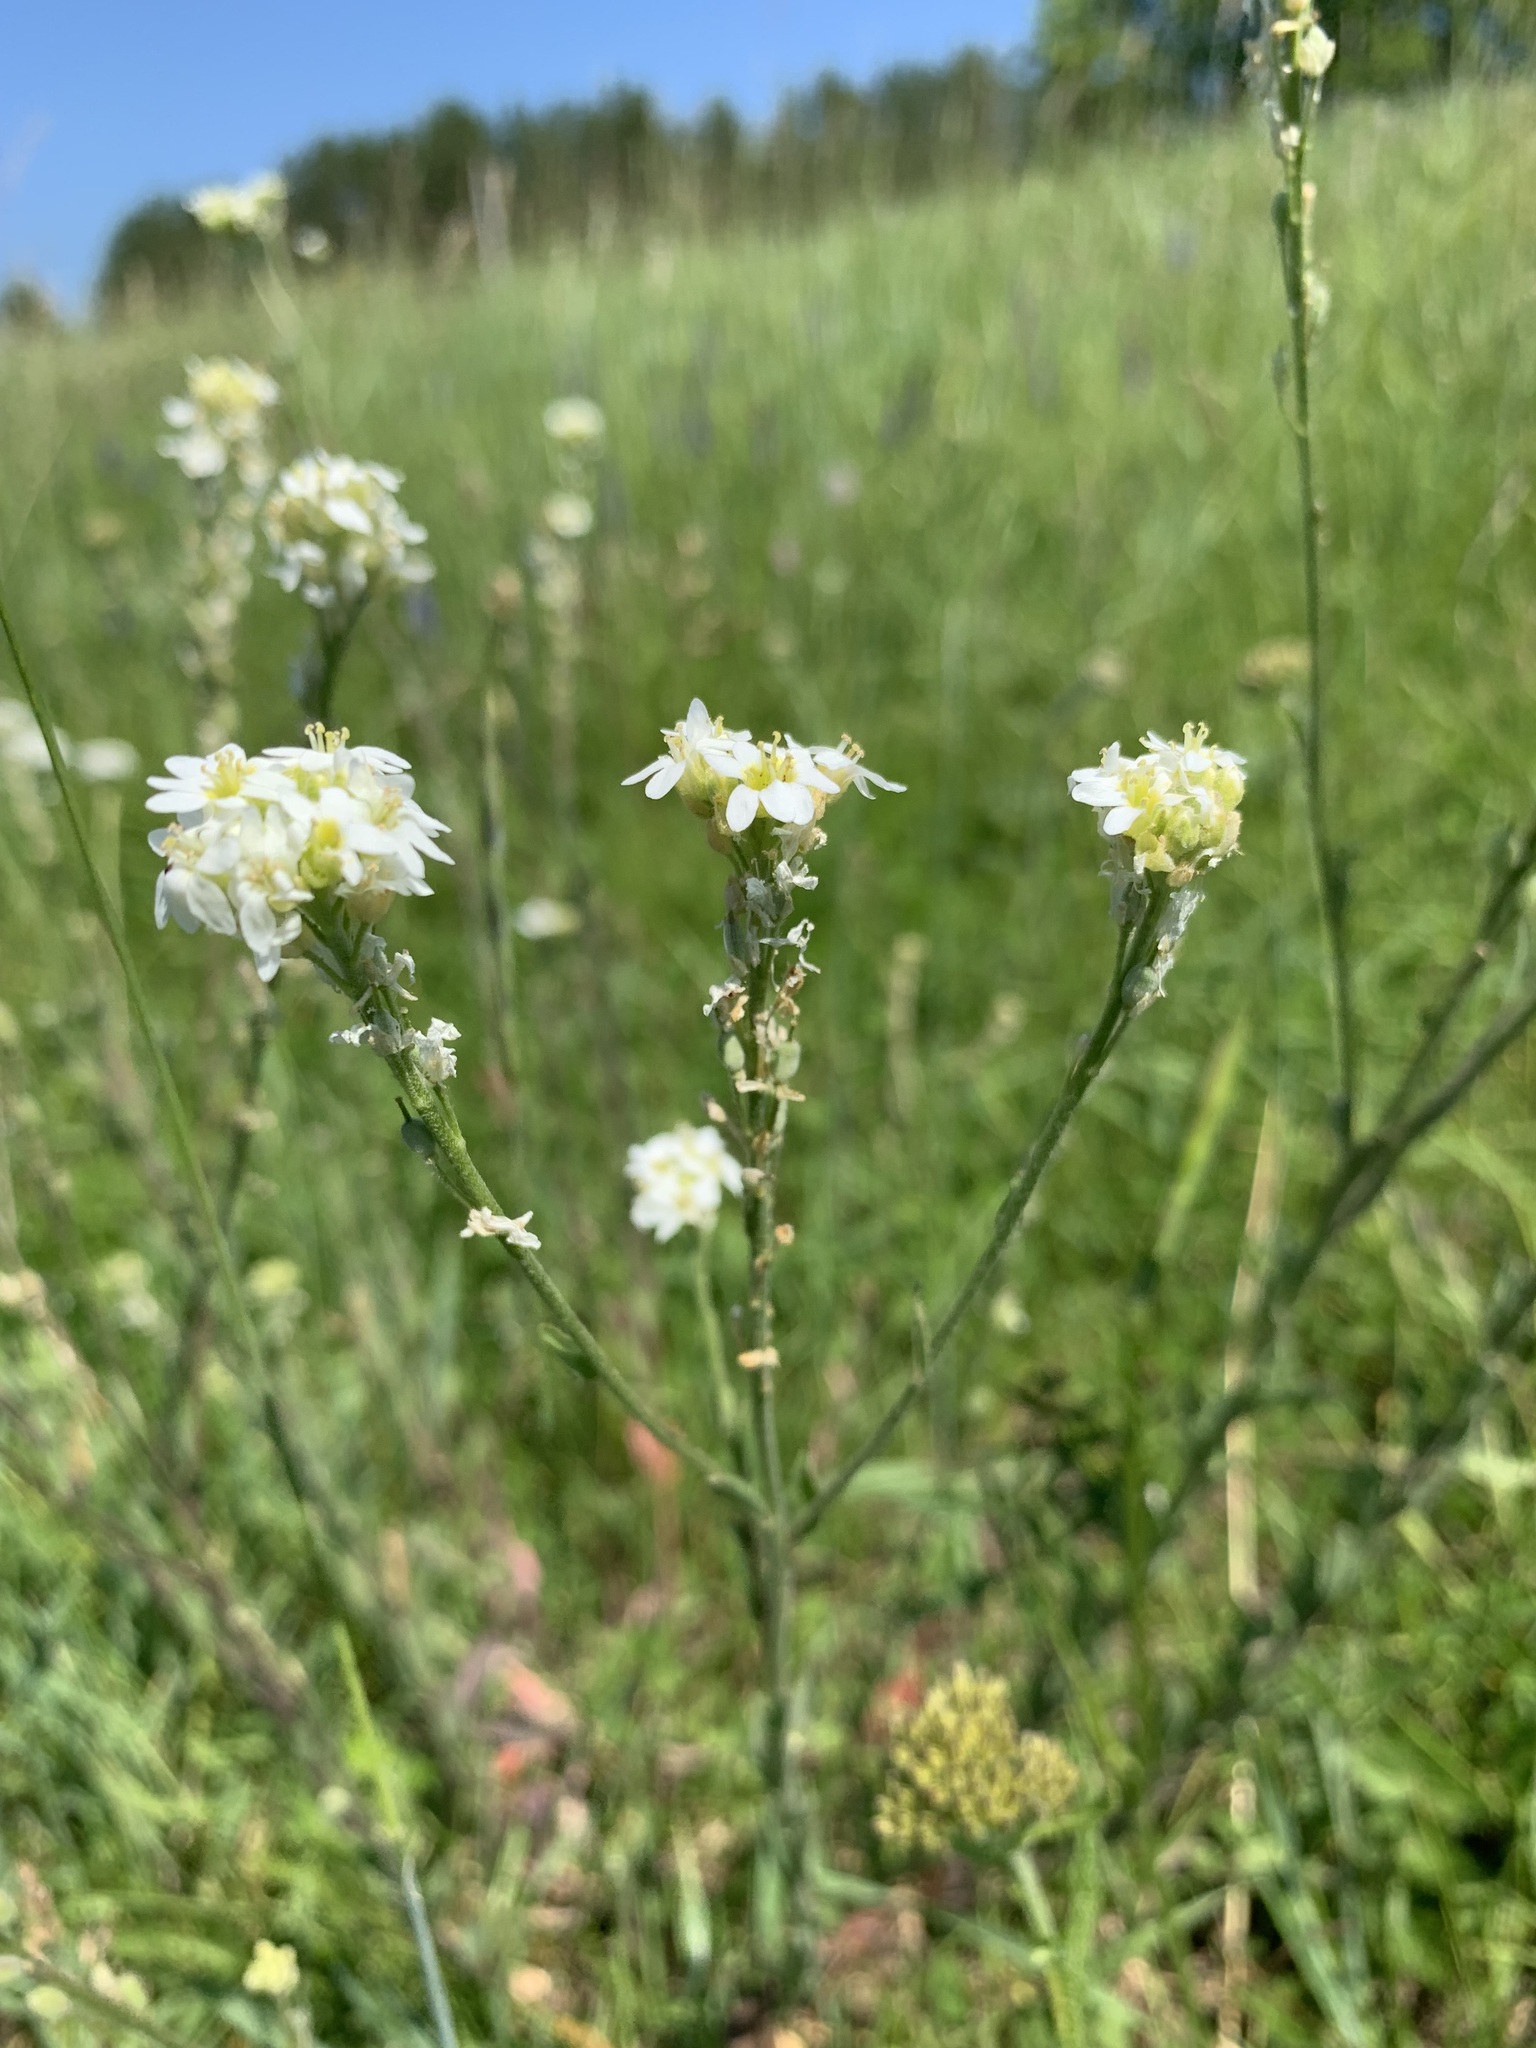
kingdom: Plantae
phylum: Tracheophyta
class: Magnoliopsida
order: Brassicales
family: Brassicaceae
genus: Berteroa
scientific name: Berteroa incana
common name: Hoary alison
